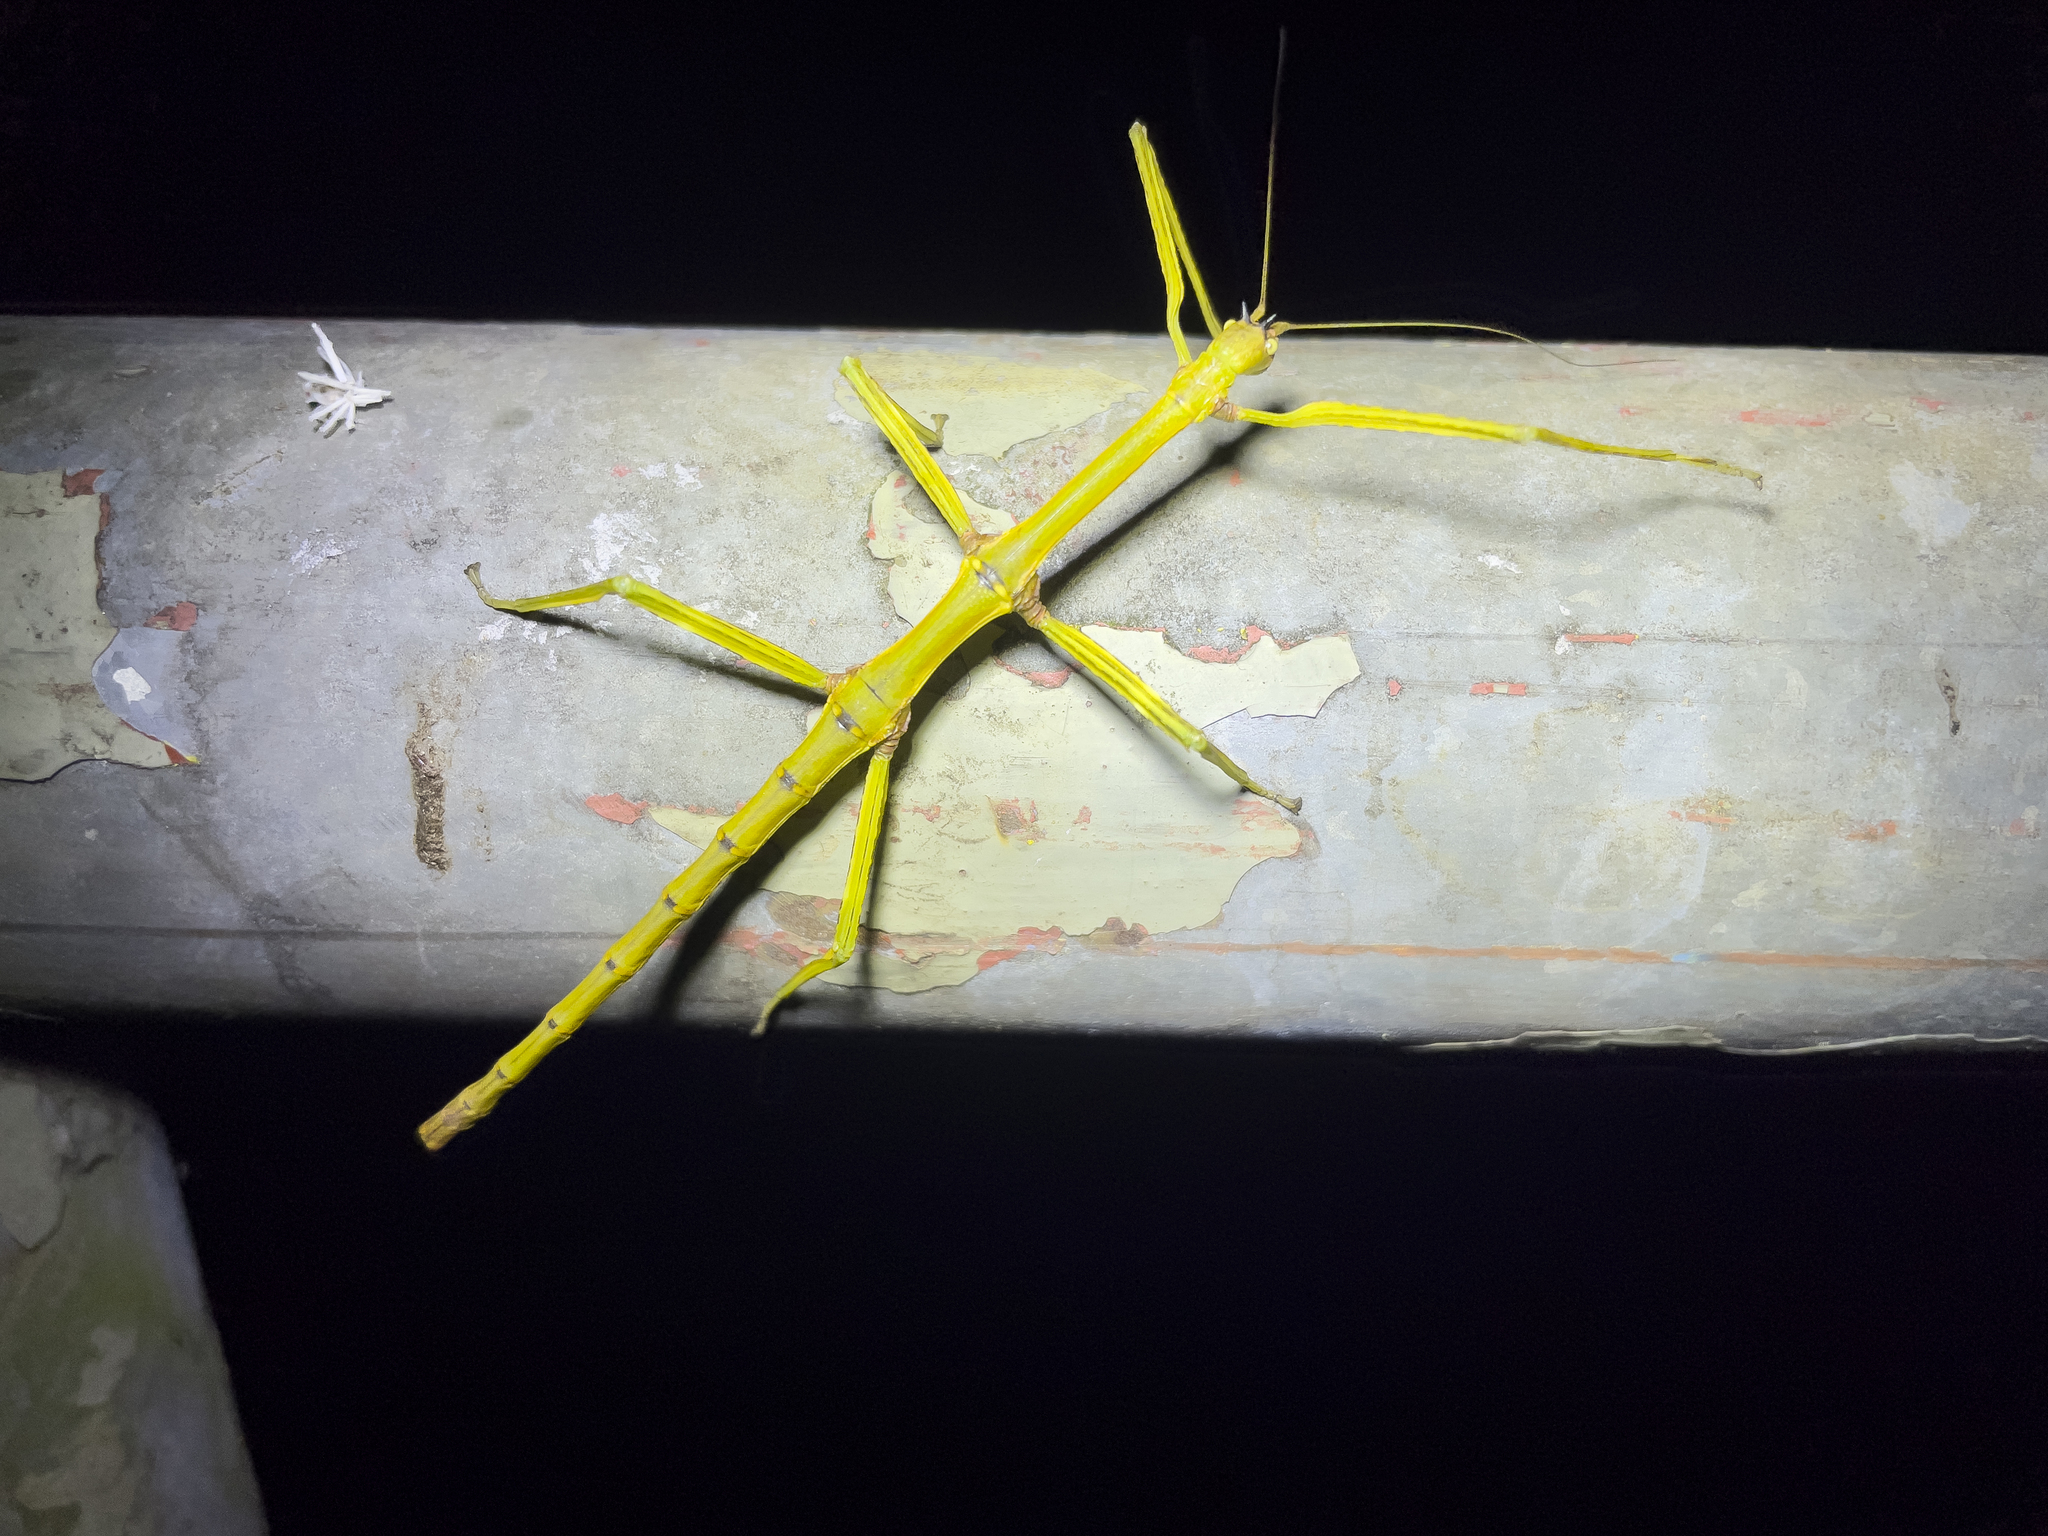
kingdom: Animalia
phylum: Arthropoda
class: Insecta
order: Phasmida
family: Lonchodidae
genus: Phraortes
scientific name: Phraortes stomphax
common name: Hong kong stick insect
